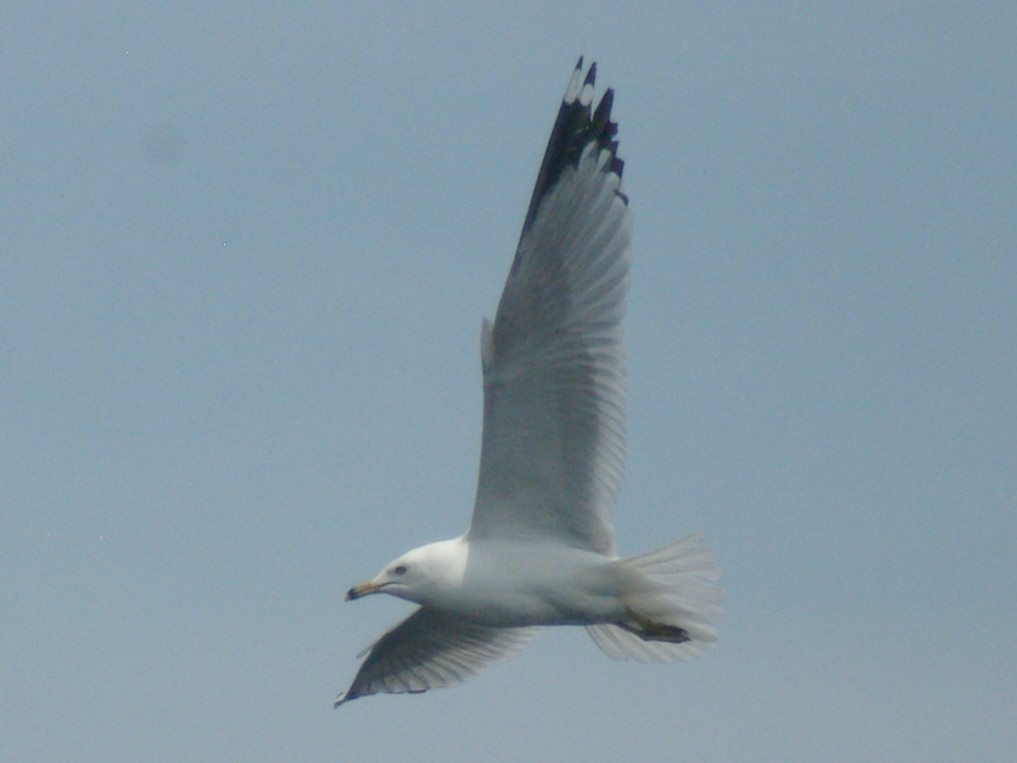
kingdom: Animalia
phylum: Chordata
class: Aves
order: Charadriiformes
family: Laridae
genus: Larus
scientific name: Larus delawarensis
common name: Ring-billed gull
